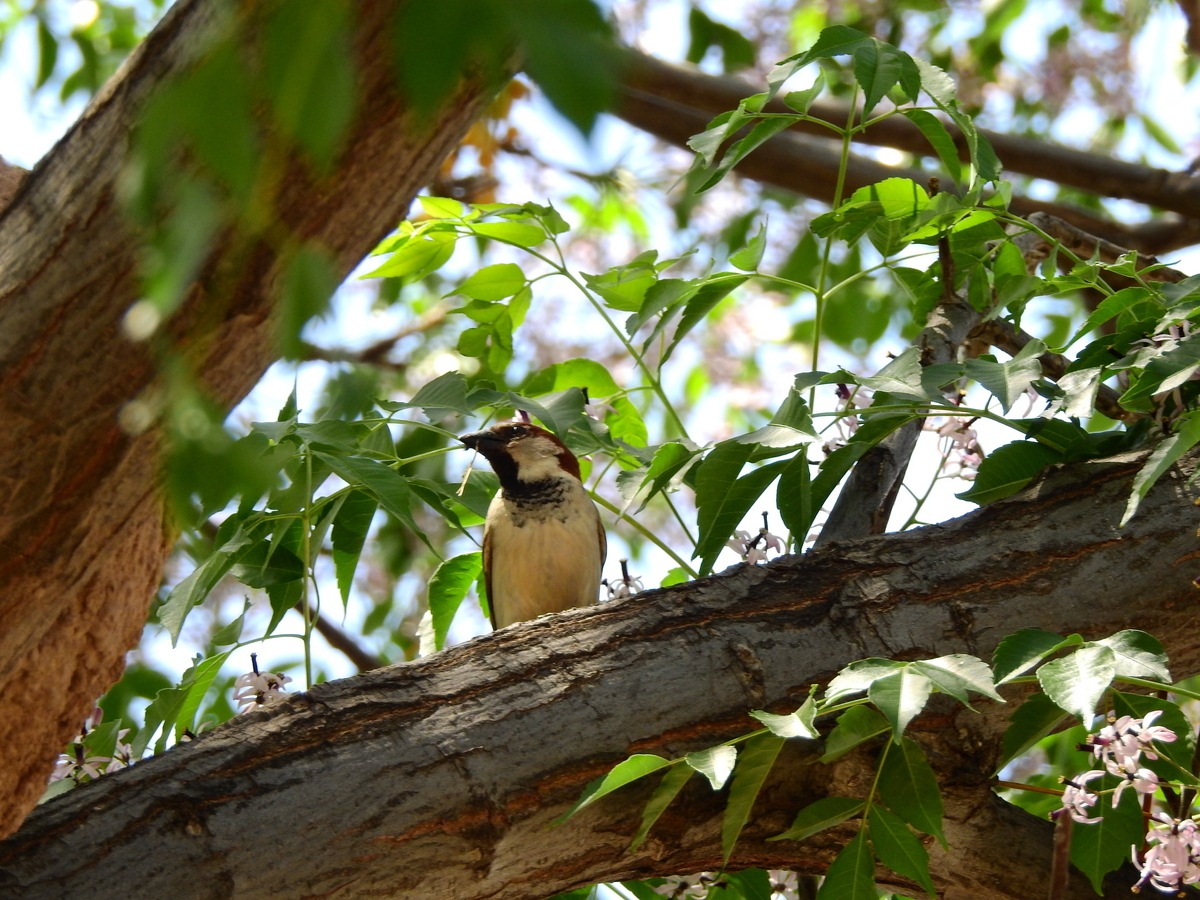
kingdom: Animalia
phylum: Chordata
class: Aves
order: Passeriformes
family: Passeridae
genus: Passer
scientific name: Passer domesticus
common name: House sparrow
